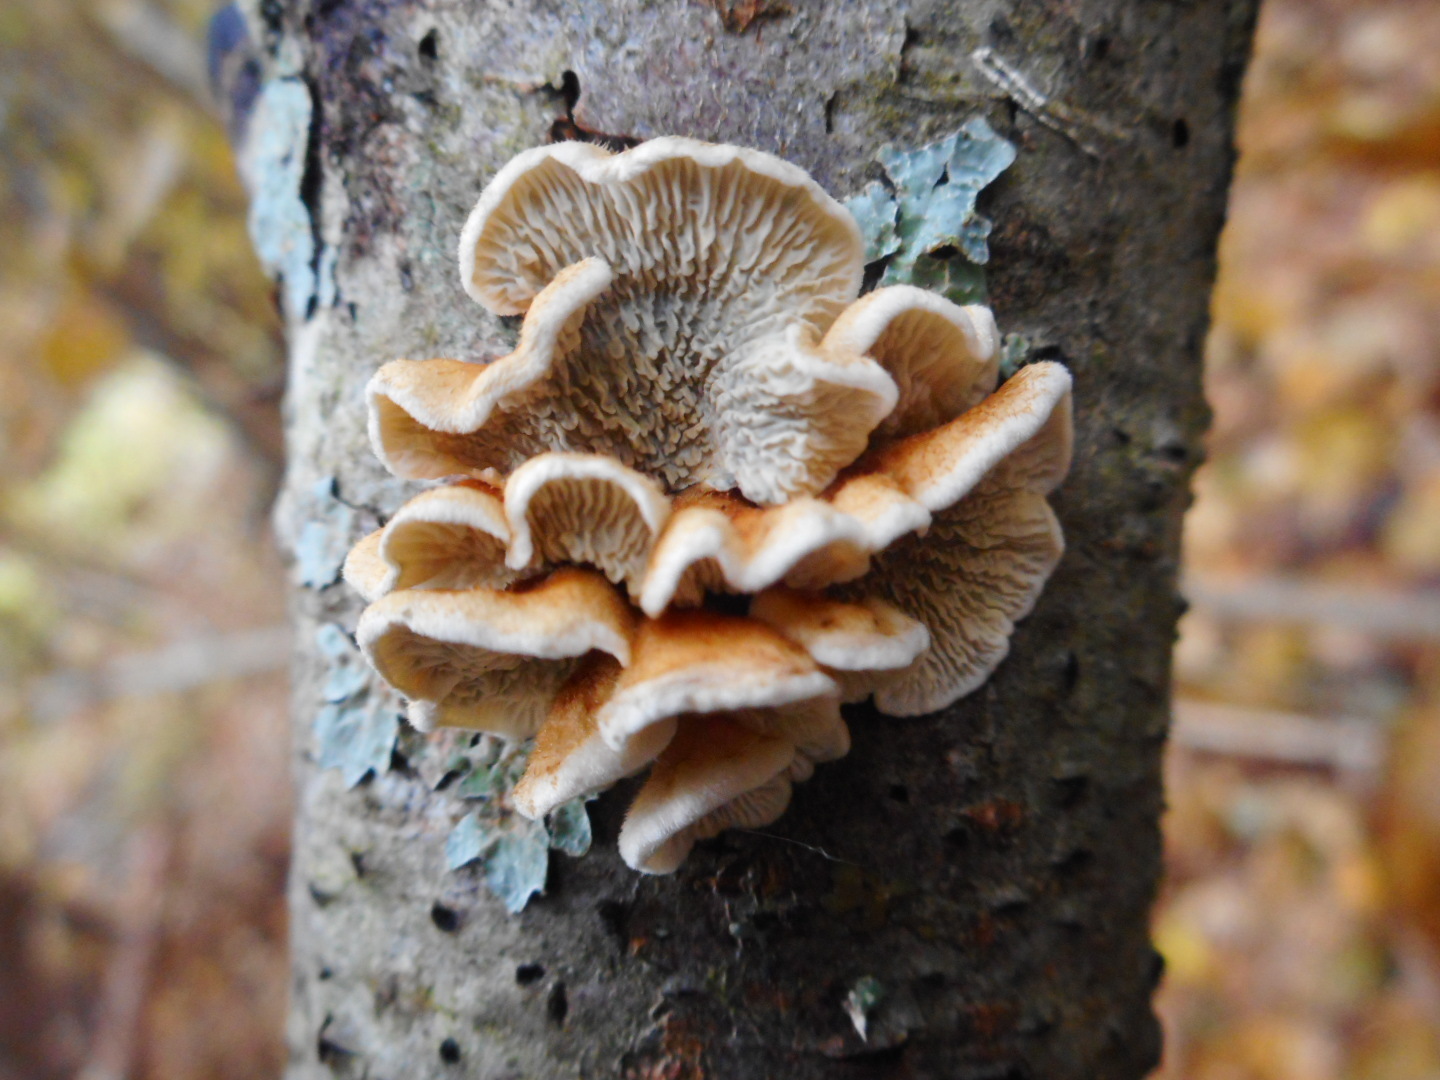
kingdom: Fungi
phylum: Basidiomycota
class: Agaricomycetes
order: Amylocorticiales
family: Amylocorticiaceae
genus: Plicaturopsis
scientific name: Plicaturopsis crispa
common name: Crimped gill
